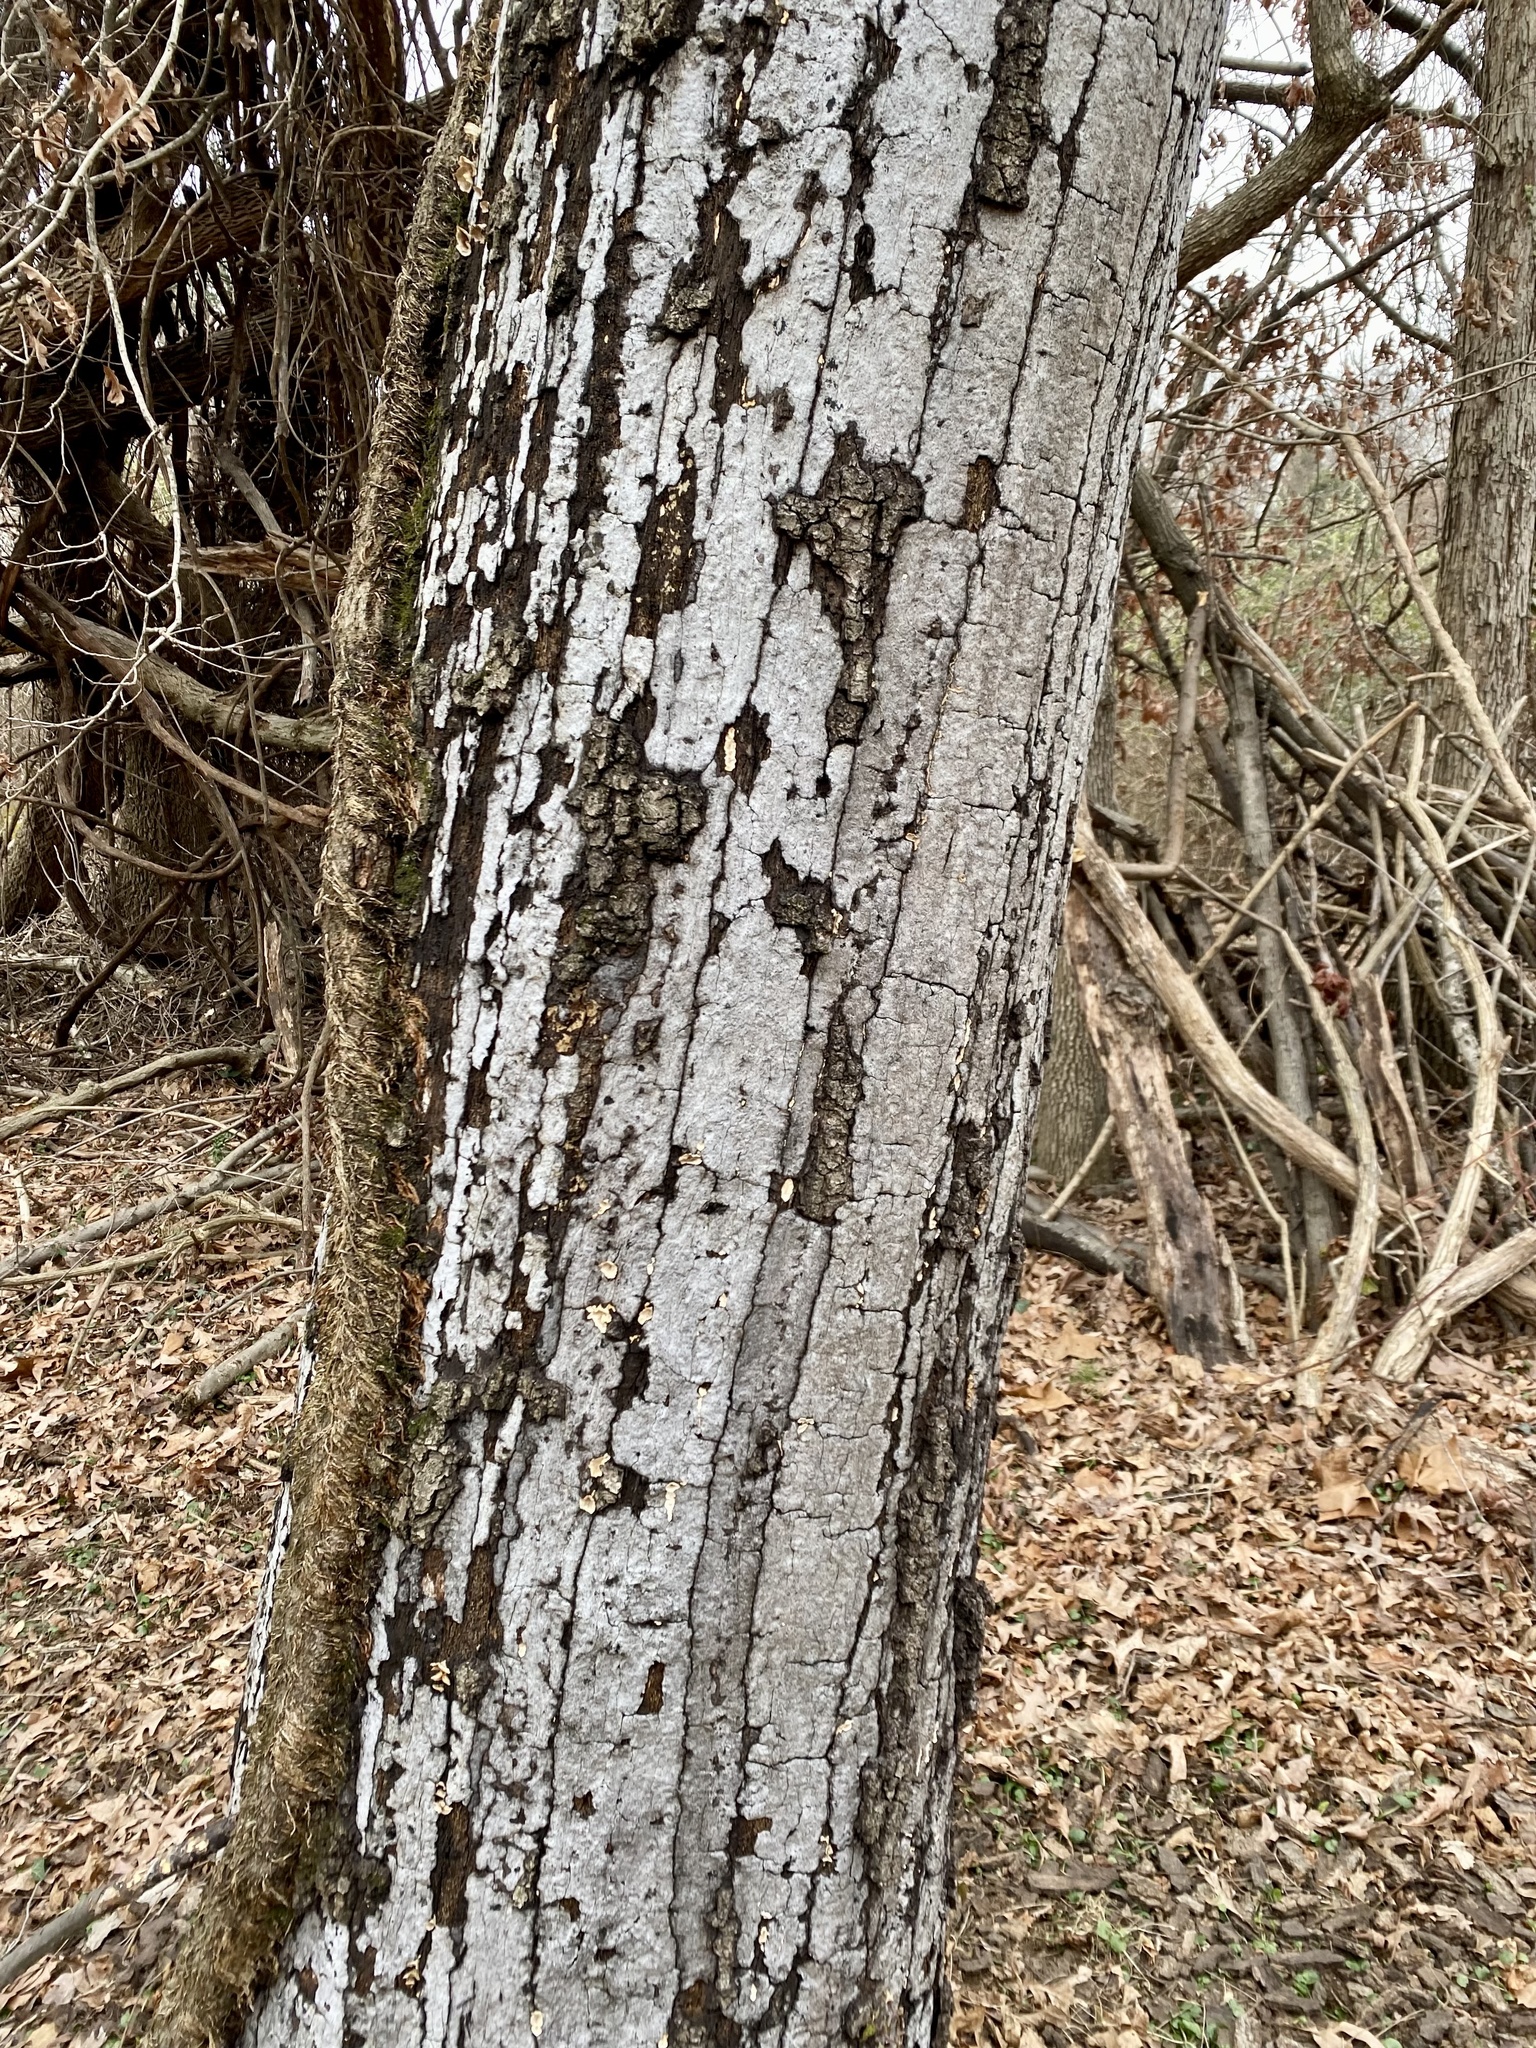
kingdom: Fungi
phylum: Ascomycota
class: Sordariomycetes
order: Xylariales
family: Graphostromataceae
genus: Biscogniauxia
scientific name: Biscogniauxia atropunctata
